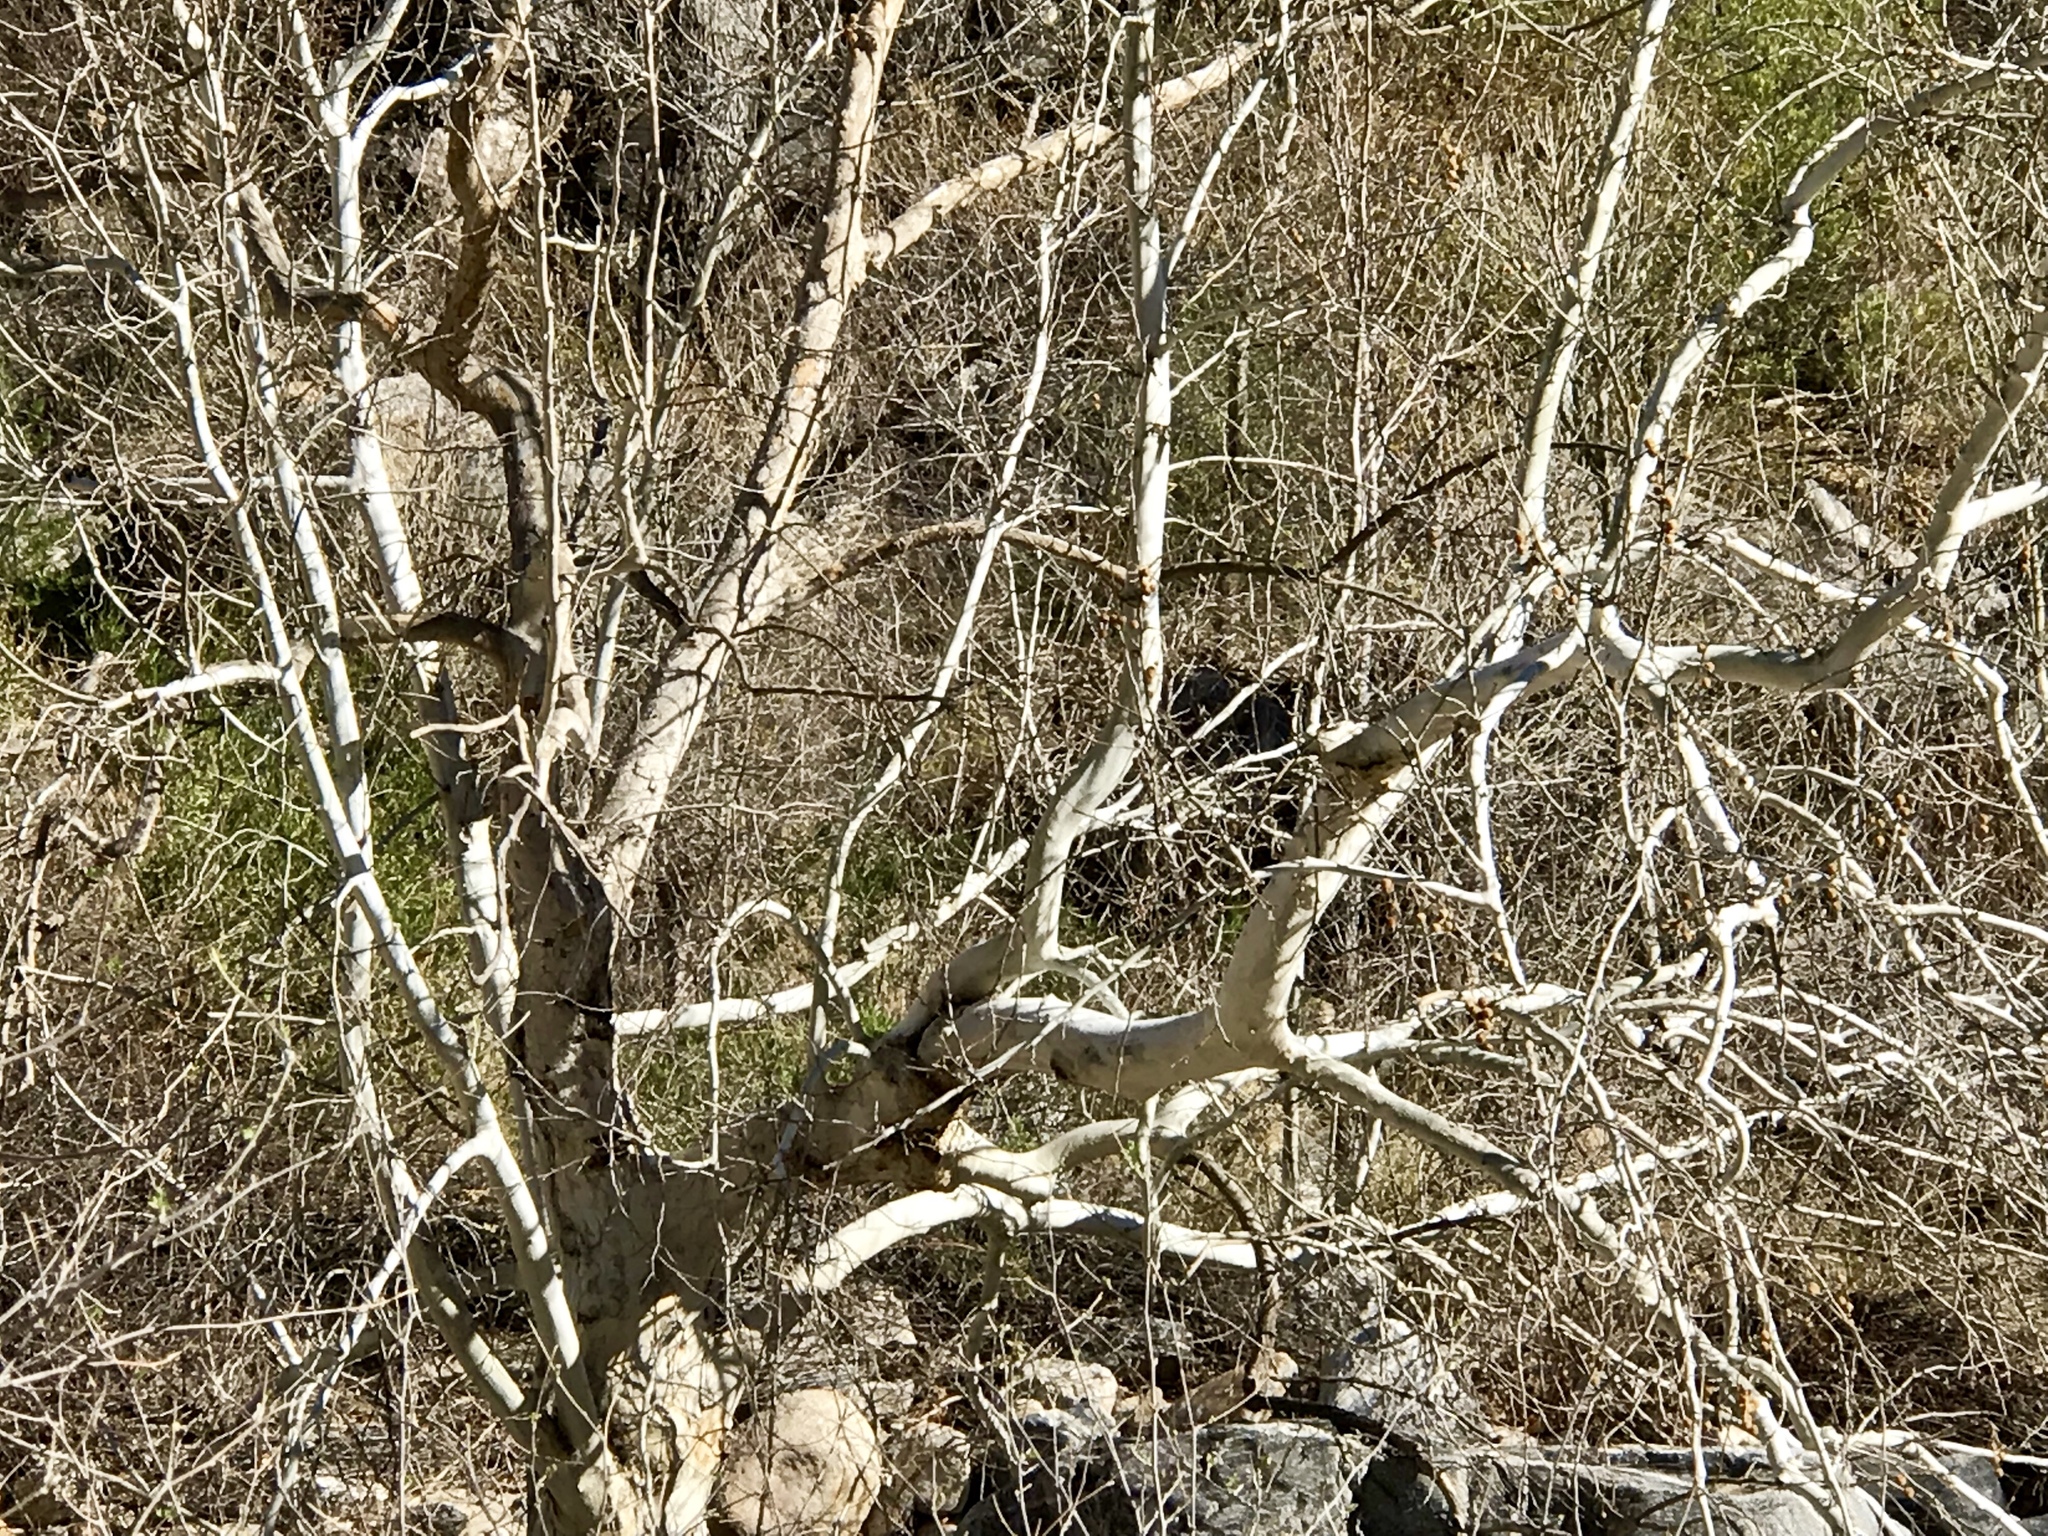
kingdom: Plantae
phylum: Tracheophyta
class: Magnoliopsida
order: Proteales
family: Platanaceae
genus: Platanus
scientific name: Platanus wrightii
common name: Arizona sycamore
